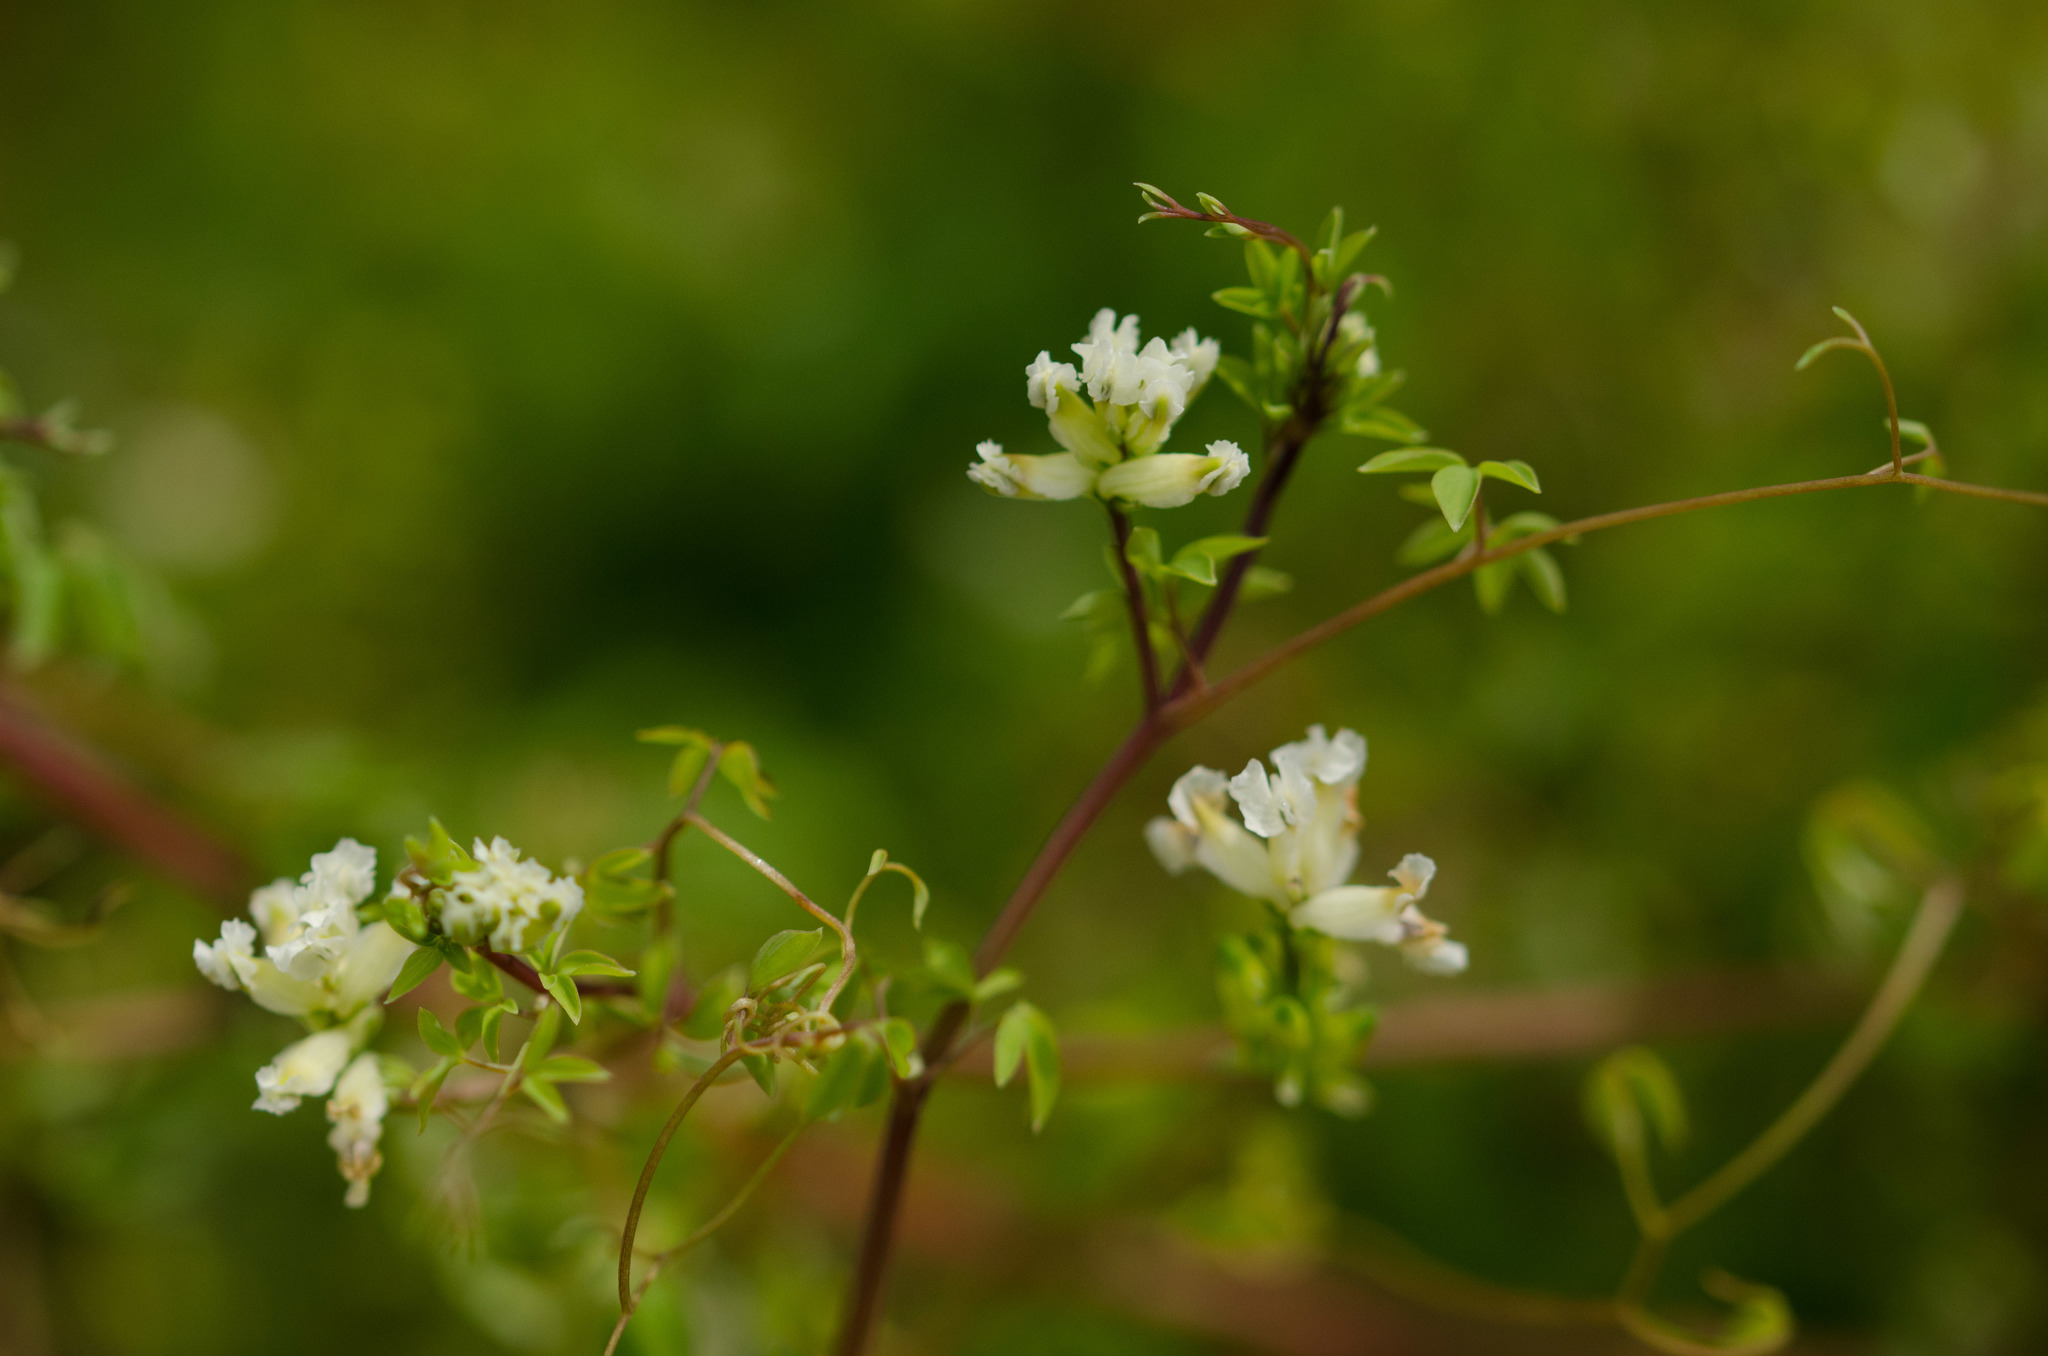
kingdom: Plantae
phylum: Tracheophyta
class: Magnoliopsida
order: Ranunculales
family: Papaveraceae
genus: Ceratocapnos
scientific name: Ceratocapnos claviculata
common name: Climbing corydalis
